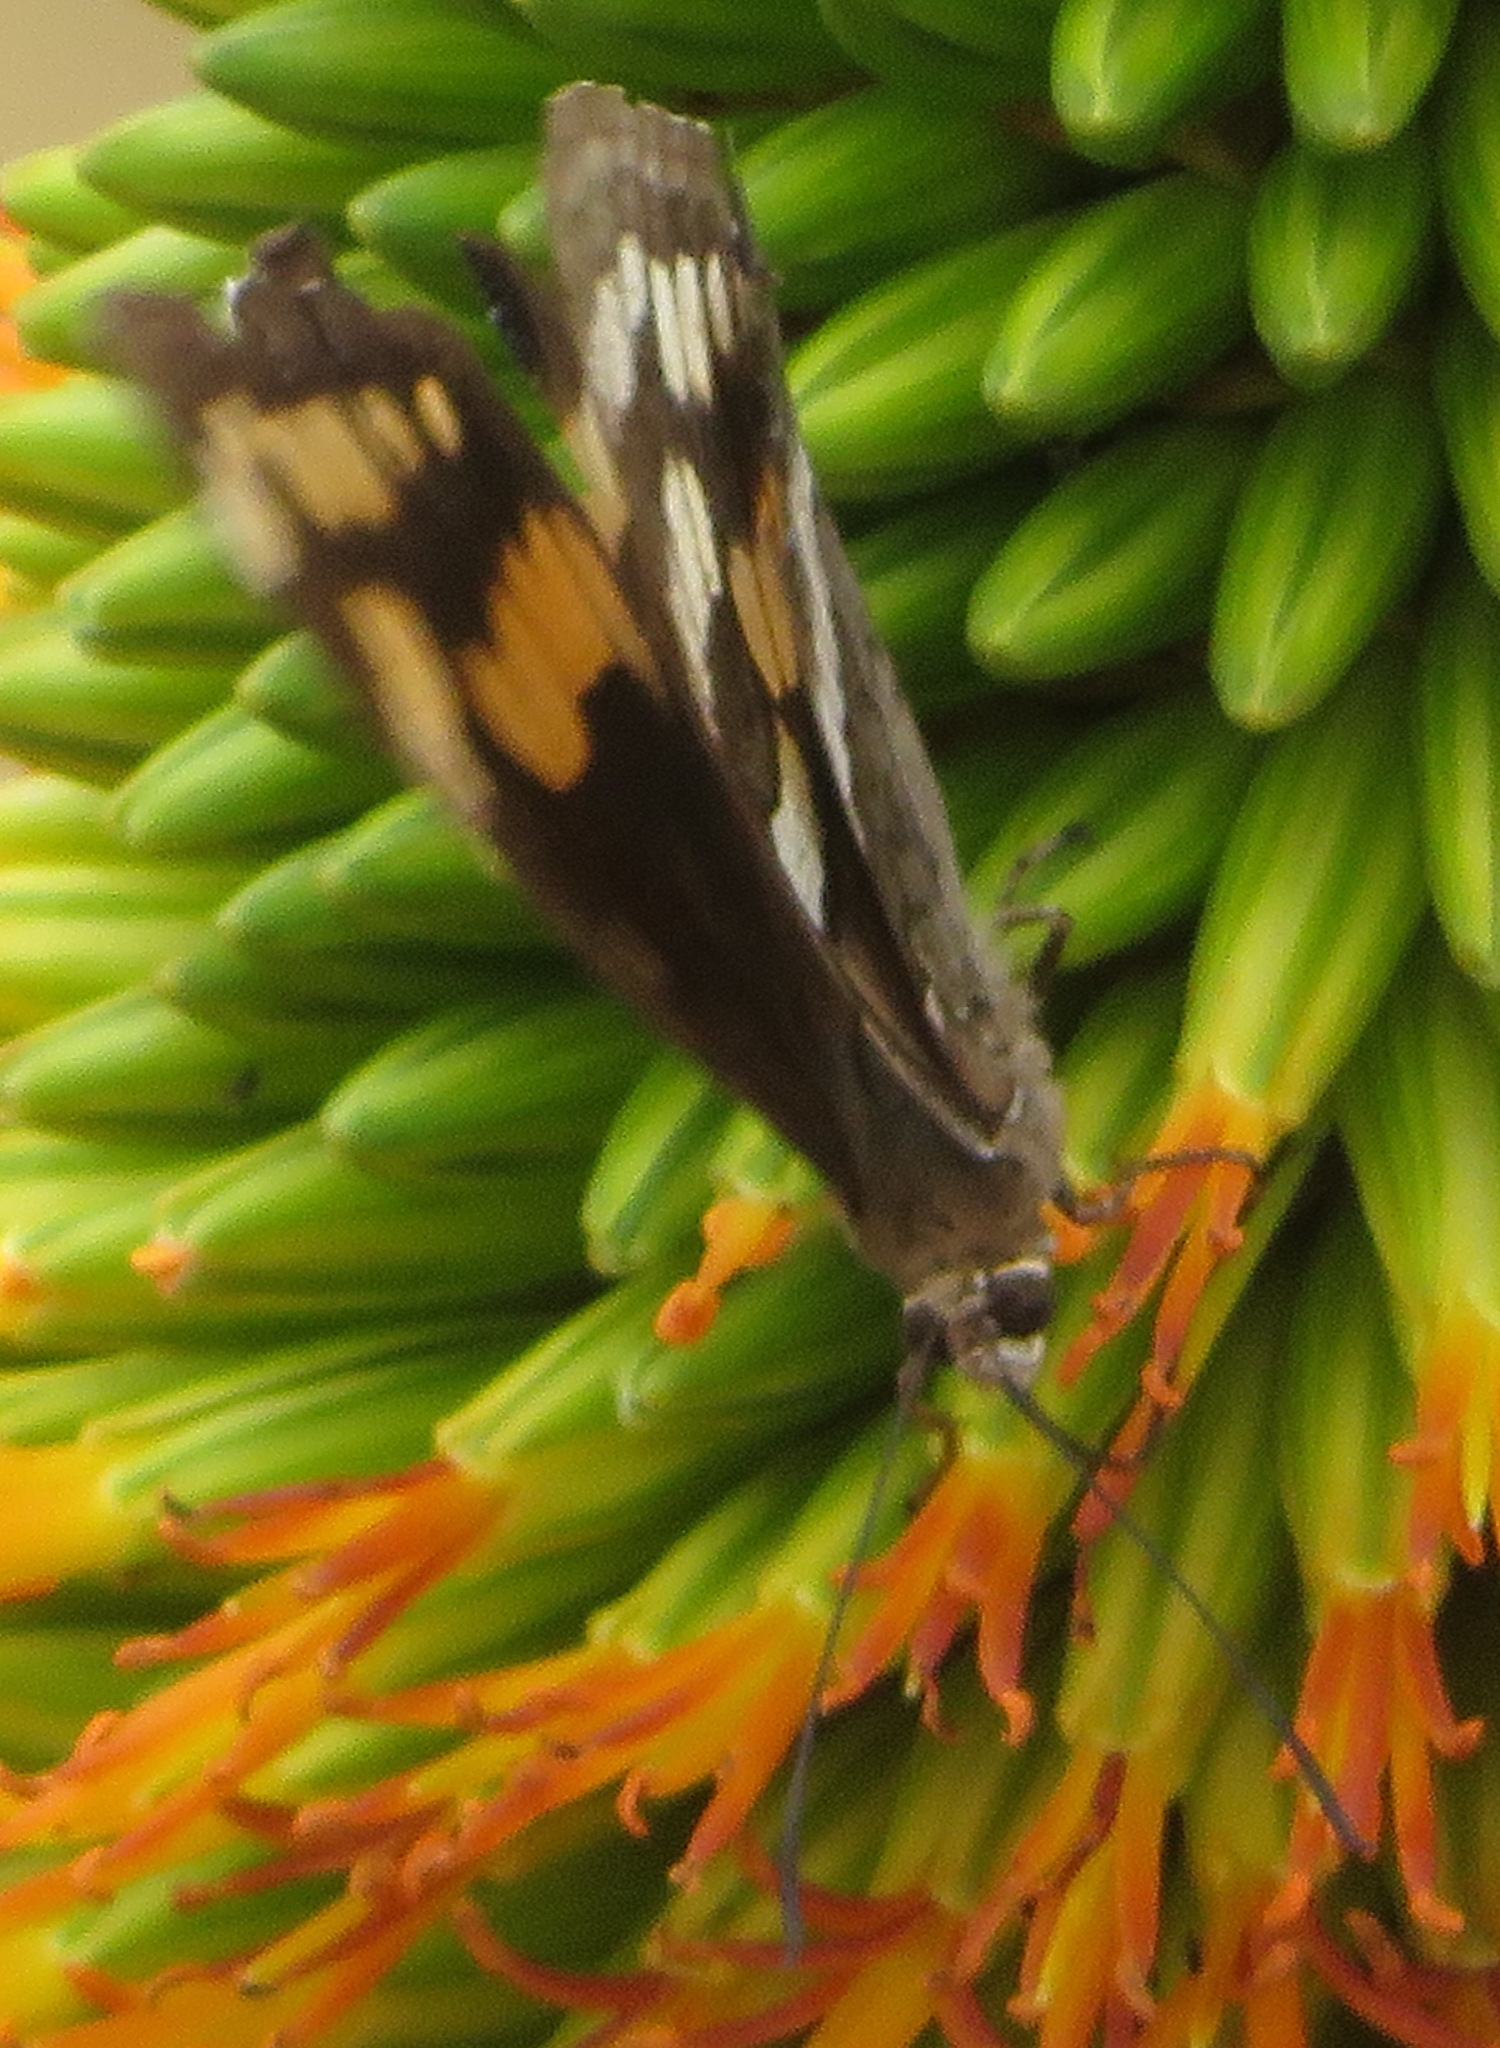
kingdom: Animalia
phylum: Arthropoda
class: Insecta
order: Lepidoptera
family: Nymphalidae
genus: Meneris
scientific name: Meneris Aeropetes tulbaghia
